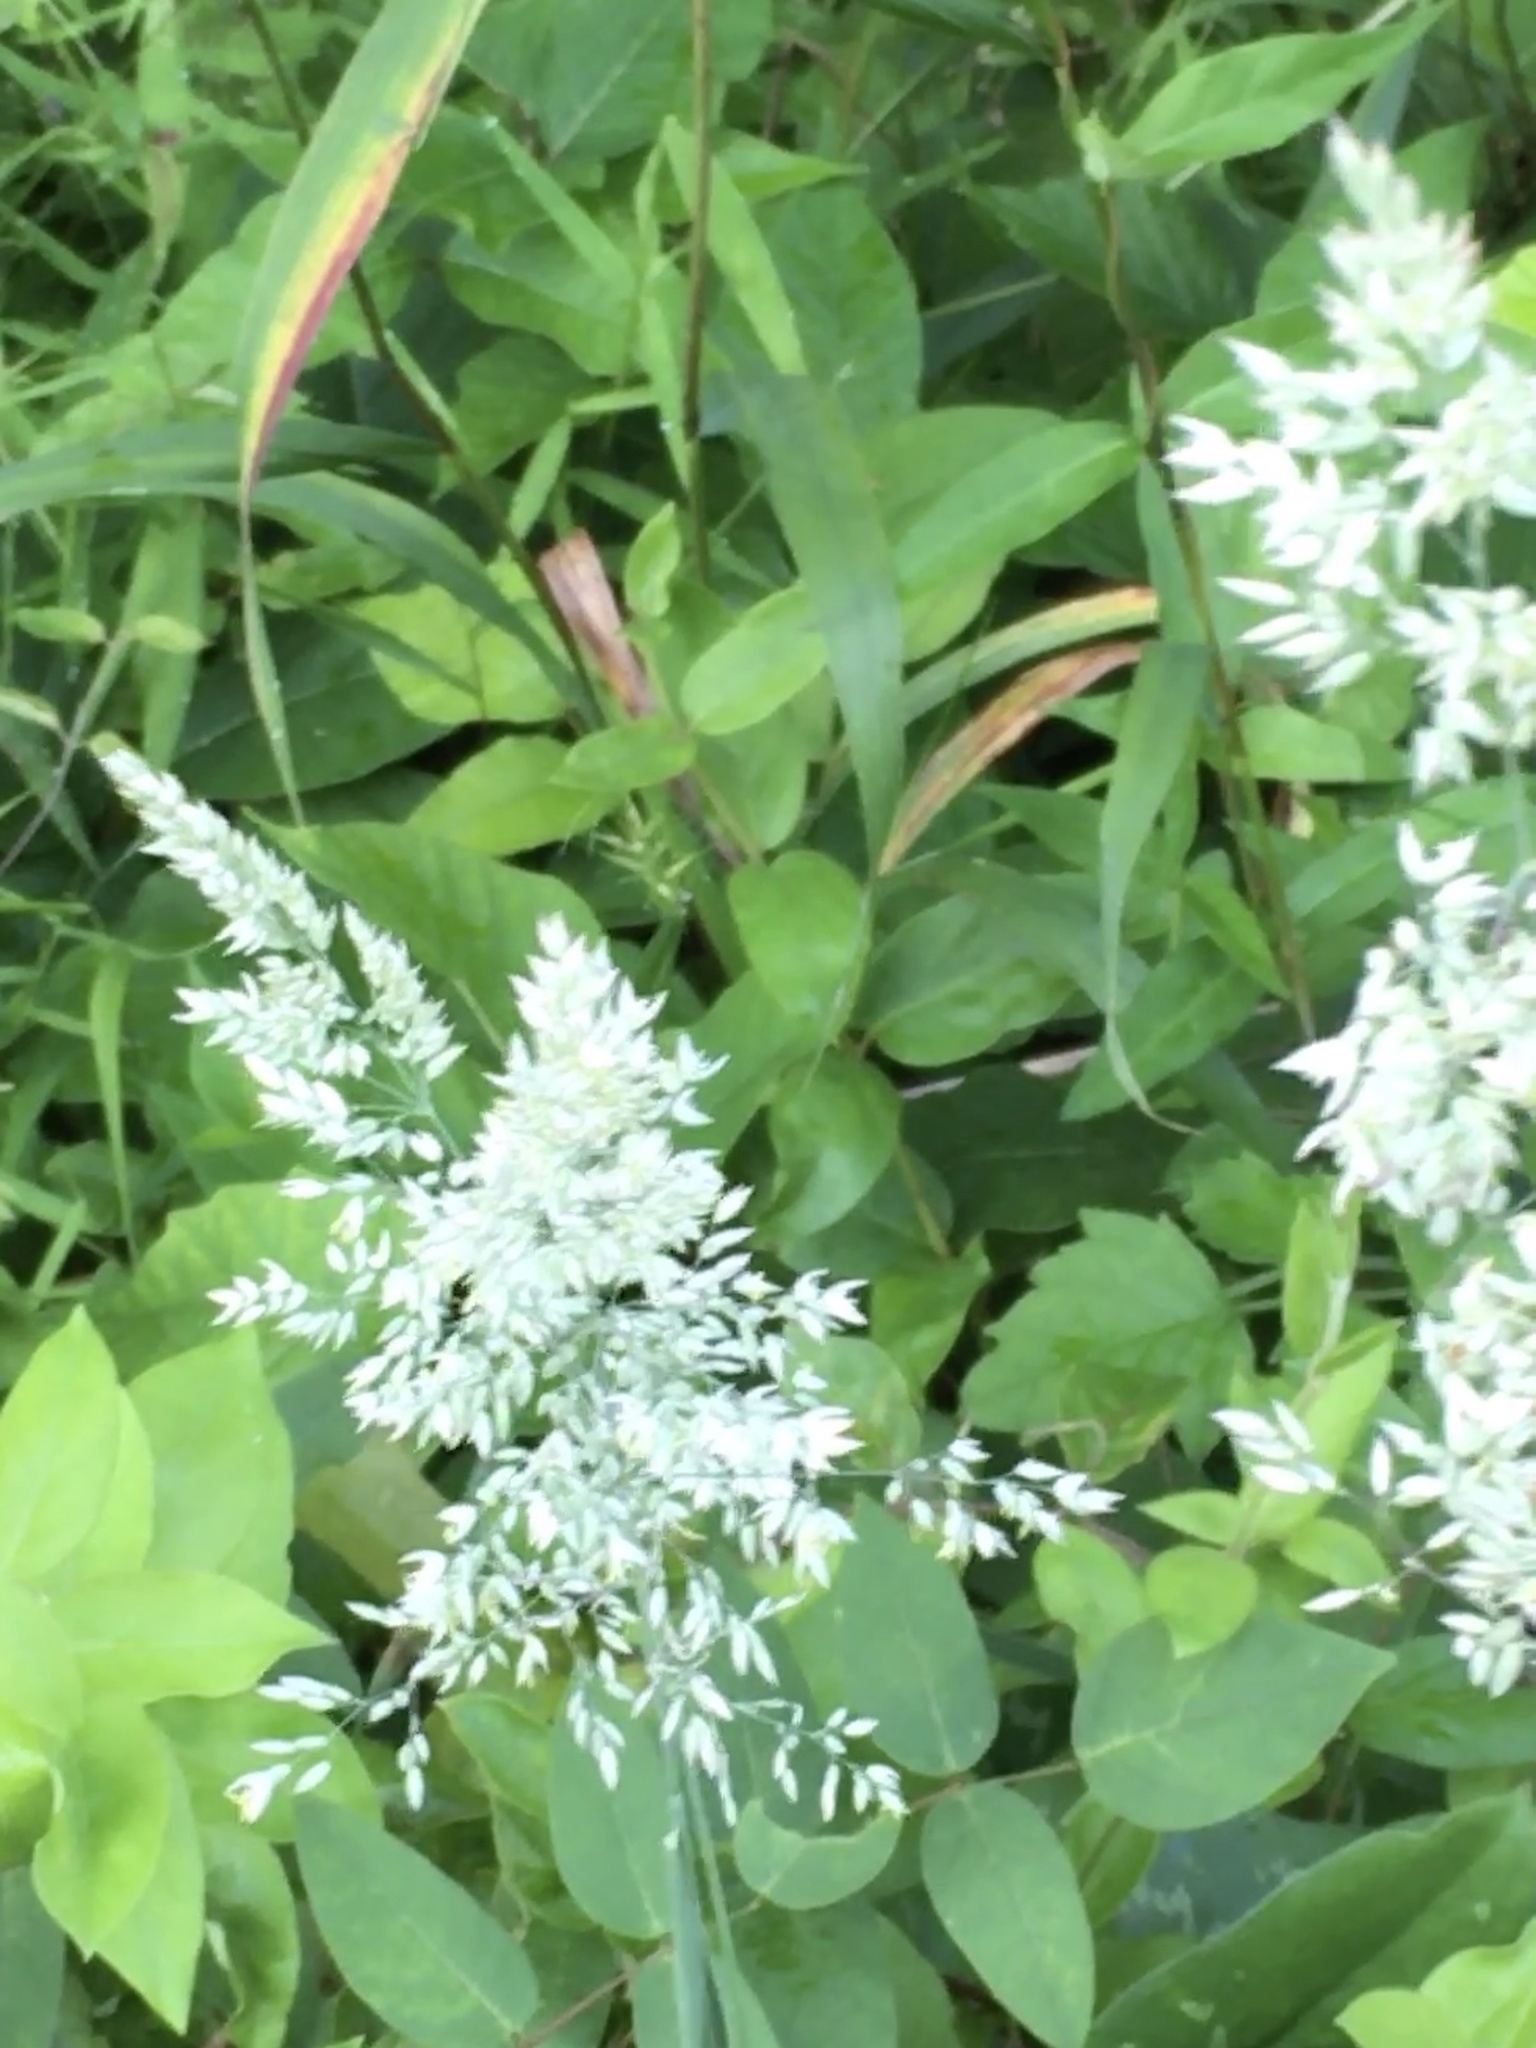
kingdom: Plantae
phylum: Tracheophyta
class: Liliopsida
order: Poales
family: Poaceae
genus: Holcus
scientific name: Holcus lanatus
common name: Yorkshire-fog
